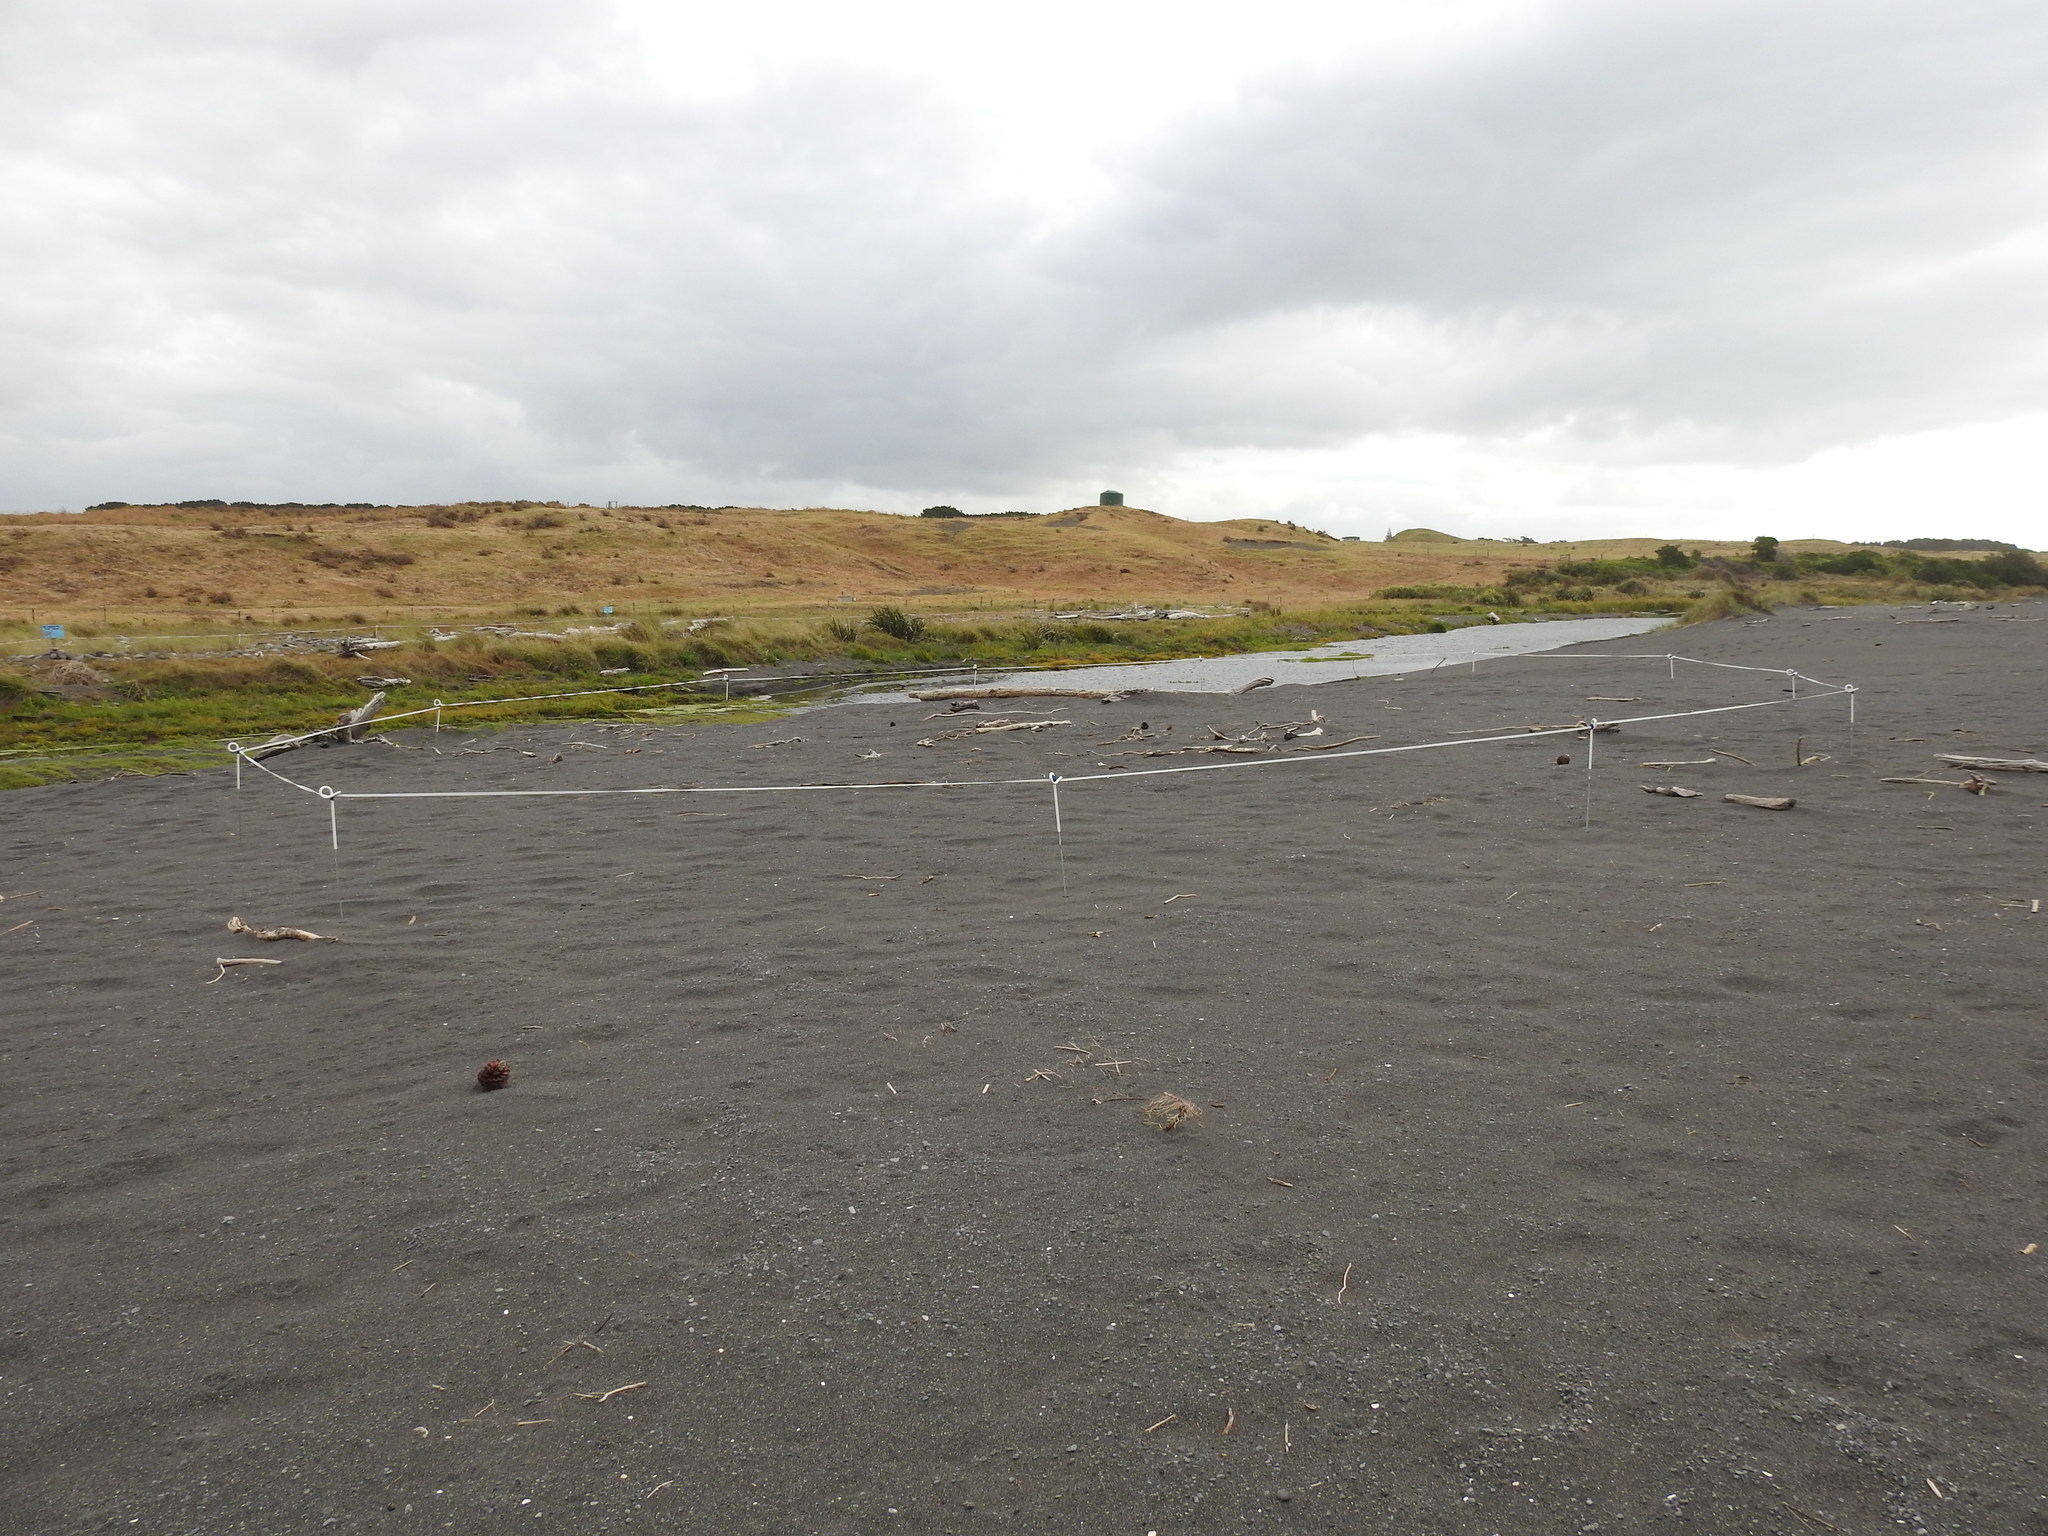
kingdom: Animalia
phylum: Chordata
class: Aves
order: Charadriiformes
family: Haematopodidae
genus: Haematopus
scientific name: Haematopus unicolor
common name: Variable oystercatcher
